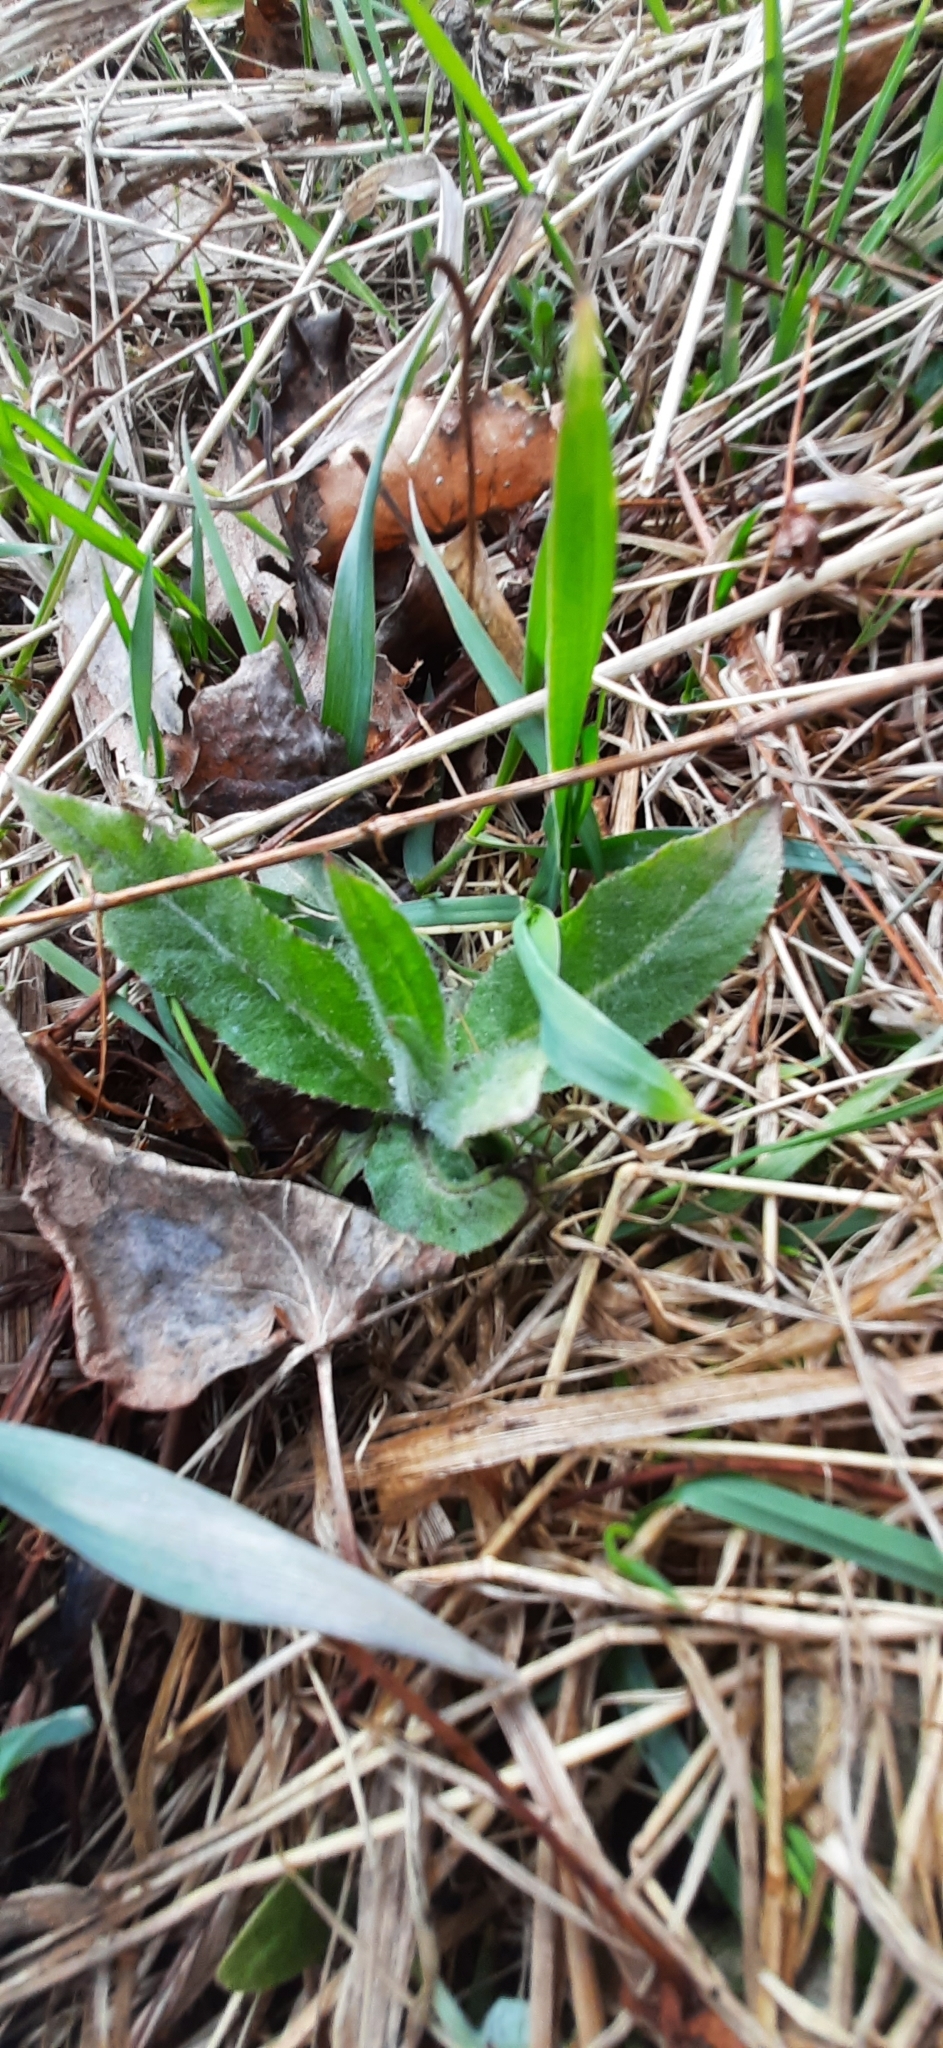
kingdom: Plantae
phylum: Tracheophyta
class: Magnoliopsida
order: Asterales
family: Asteraceae
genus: Cirsium
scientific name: Cirsium arvense
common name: Creeping thistle
